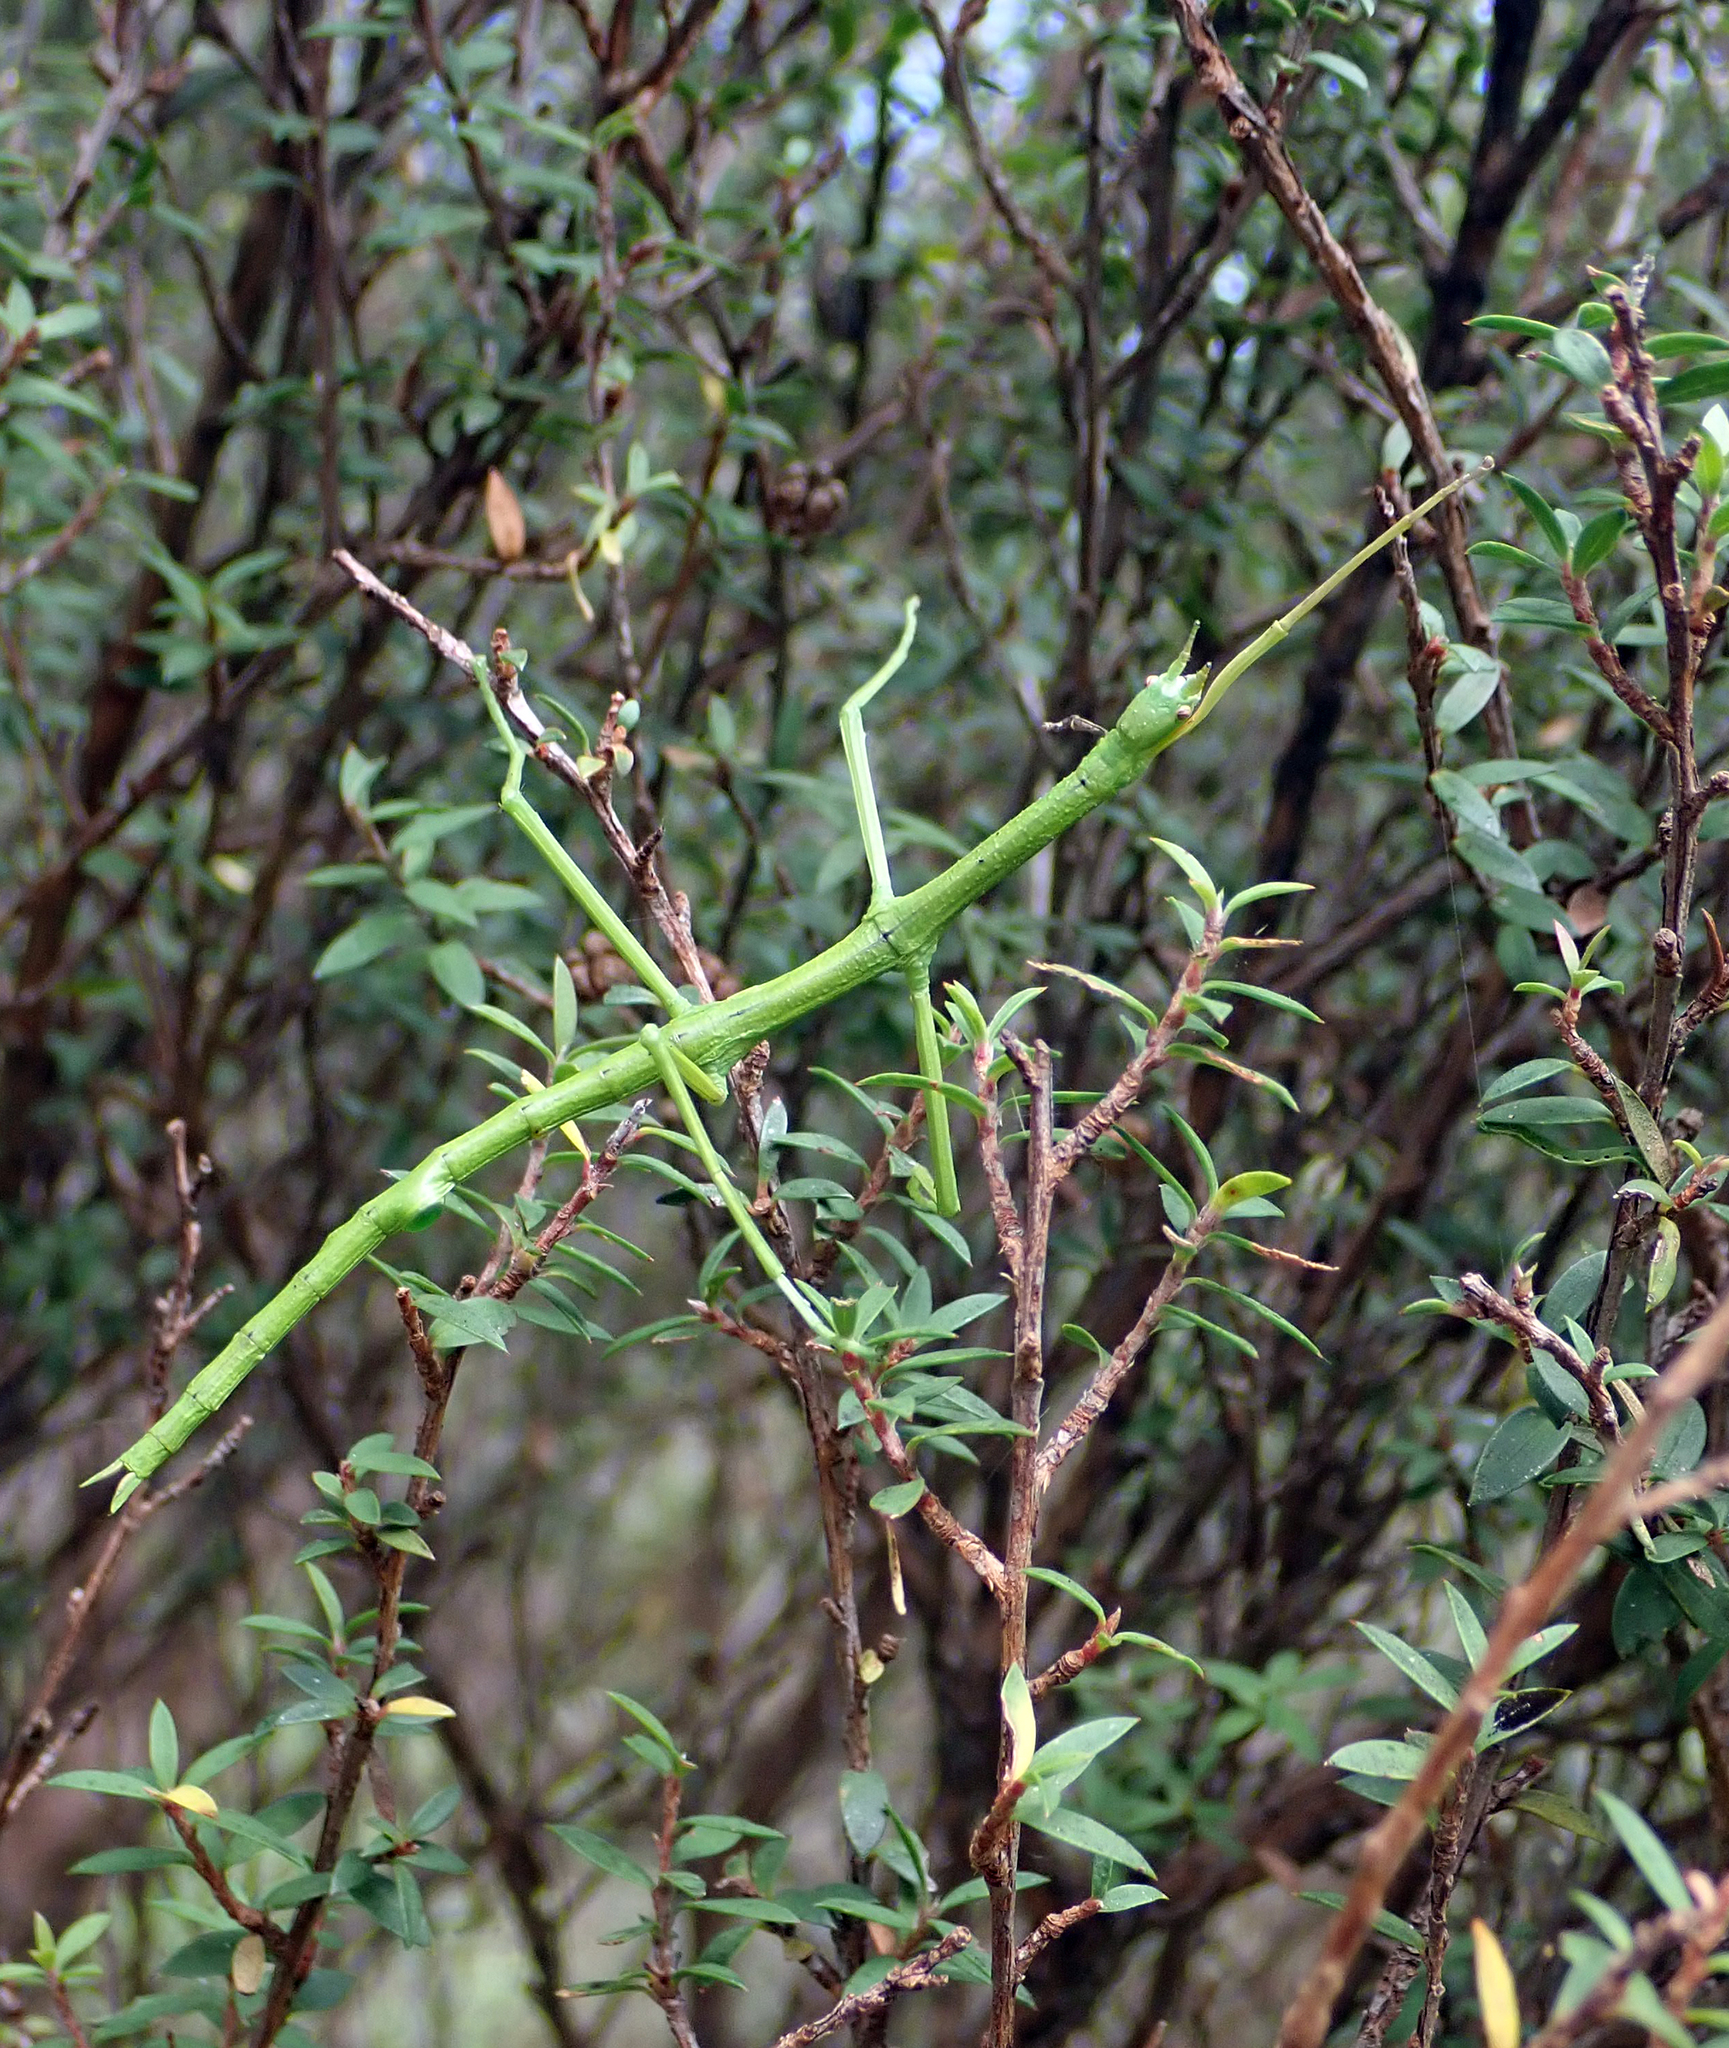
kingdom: Animalia
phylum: Arthropoda
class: Insecta
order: Phasmida
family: Phasmatidae
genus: Clitarchus
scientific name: Clitarchus hookeri
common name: Smooth stick insect
